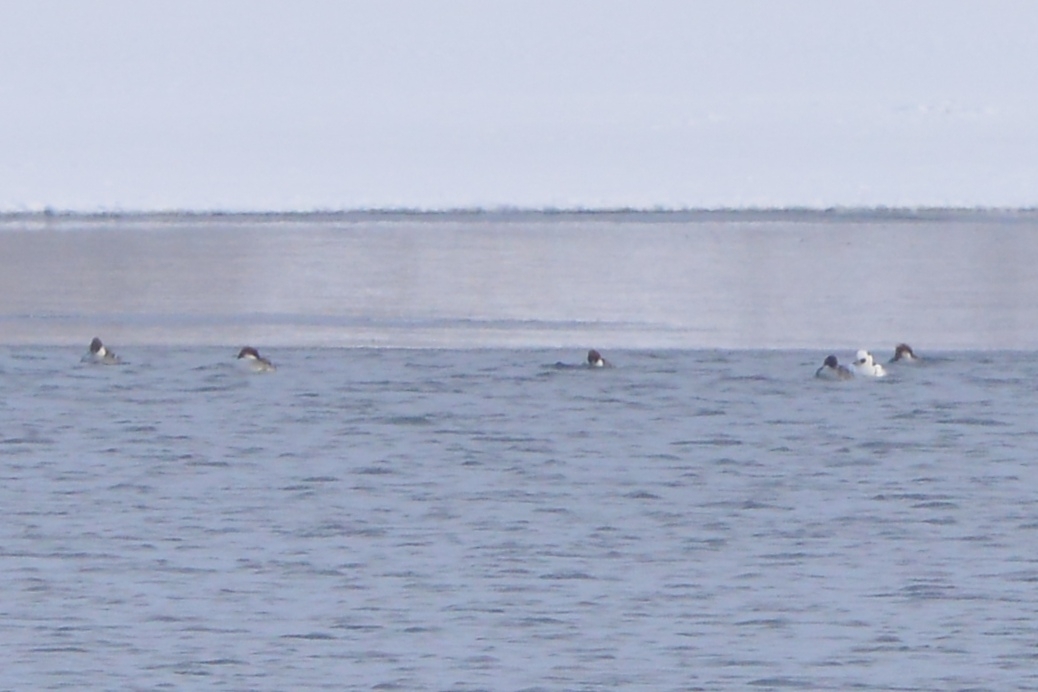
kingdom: Animalia
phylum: Chordata
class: Aves
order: Anseriformes
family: Anatidae
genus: Mergellus
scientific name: Mergellus albellus
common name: Smew
